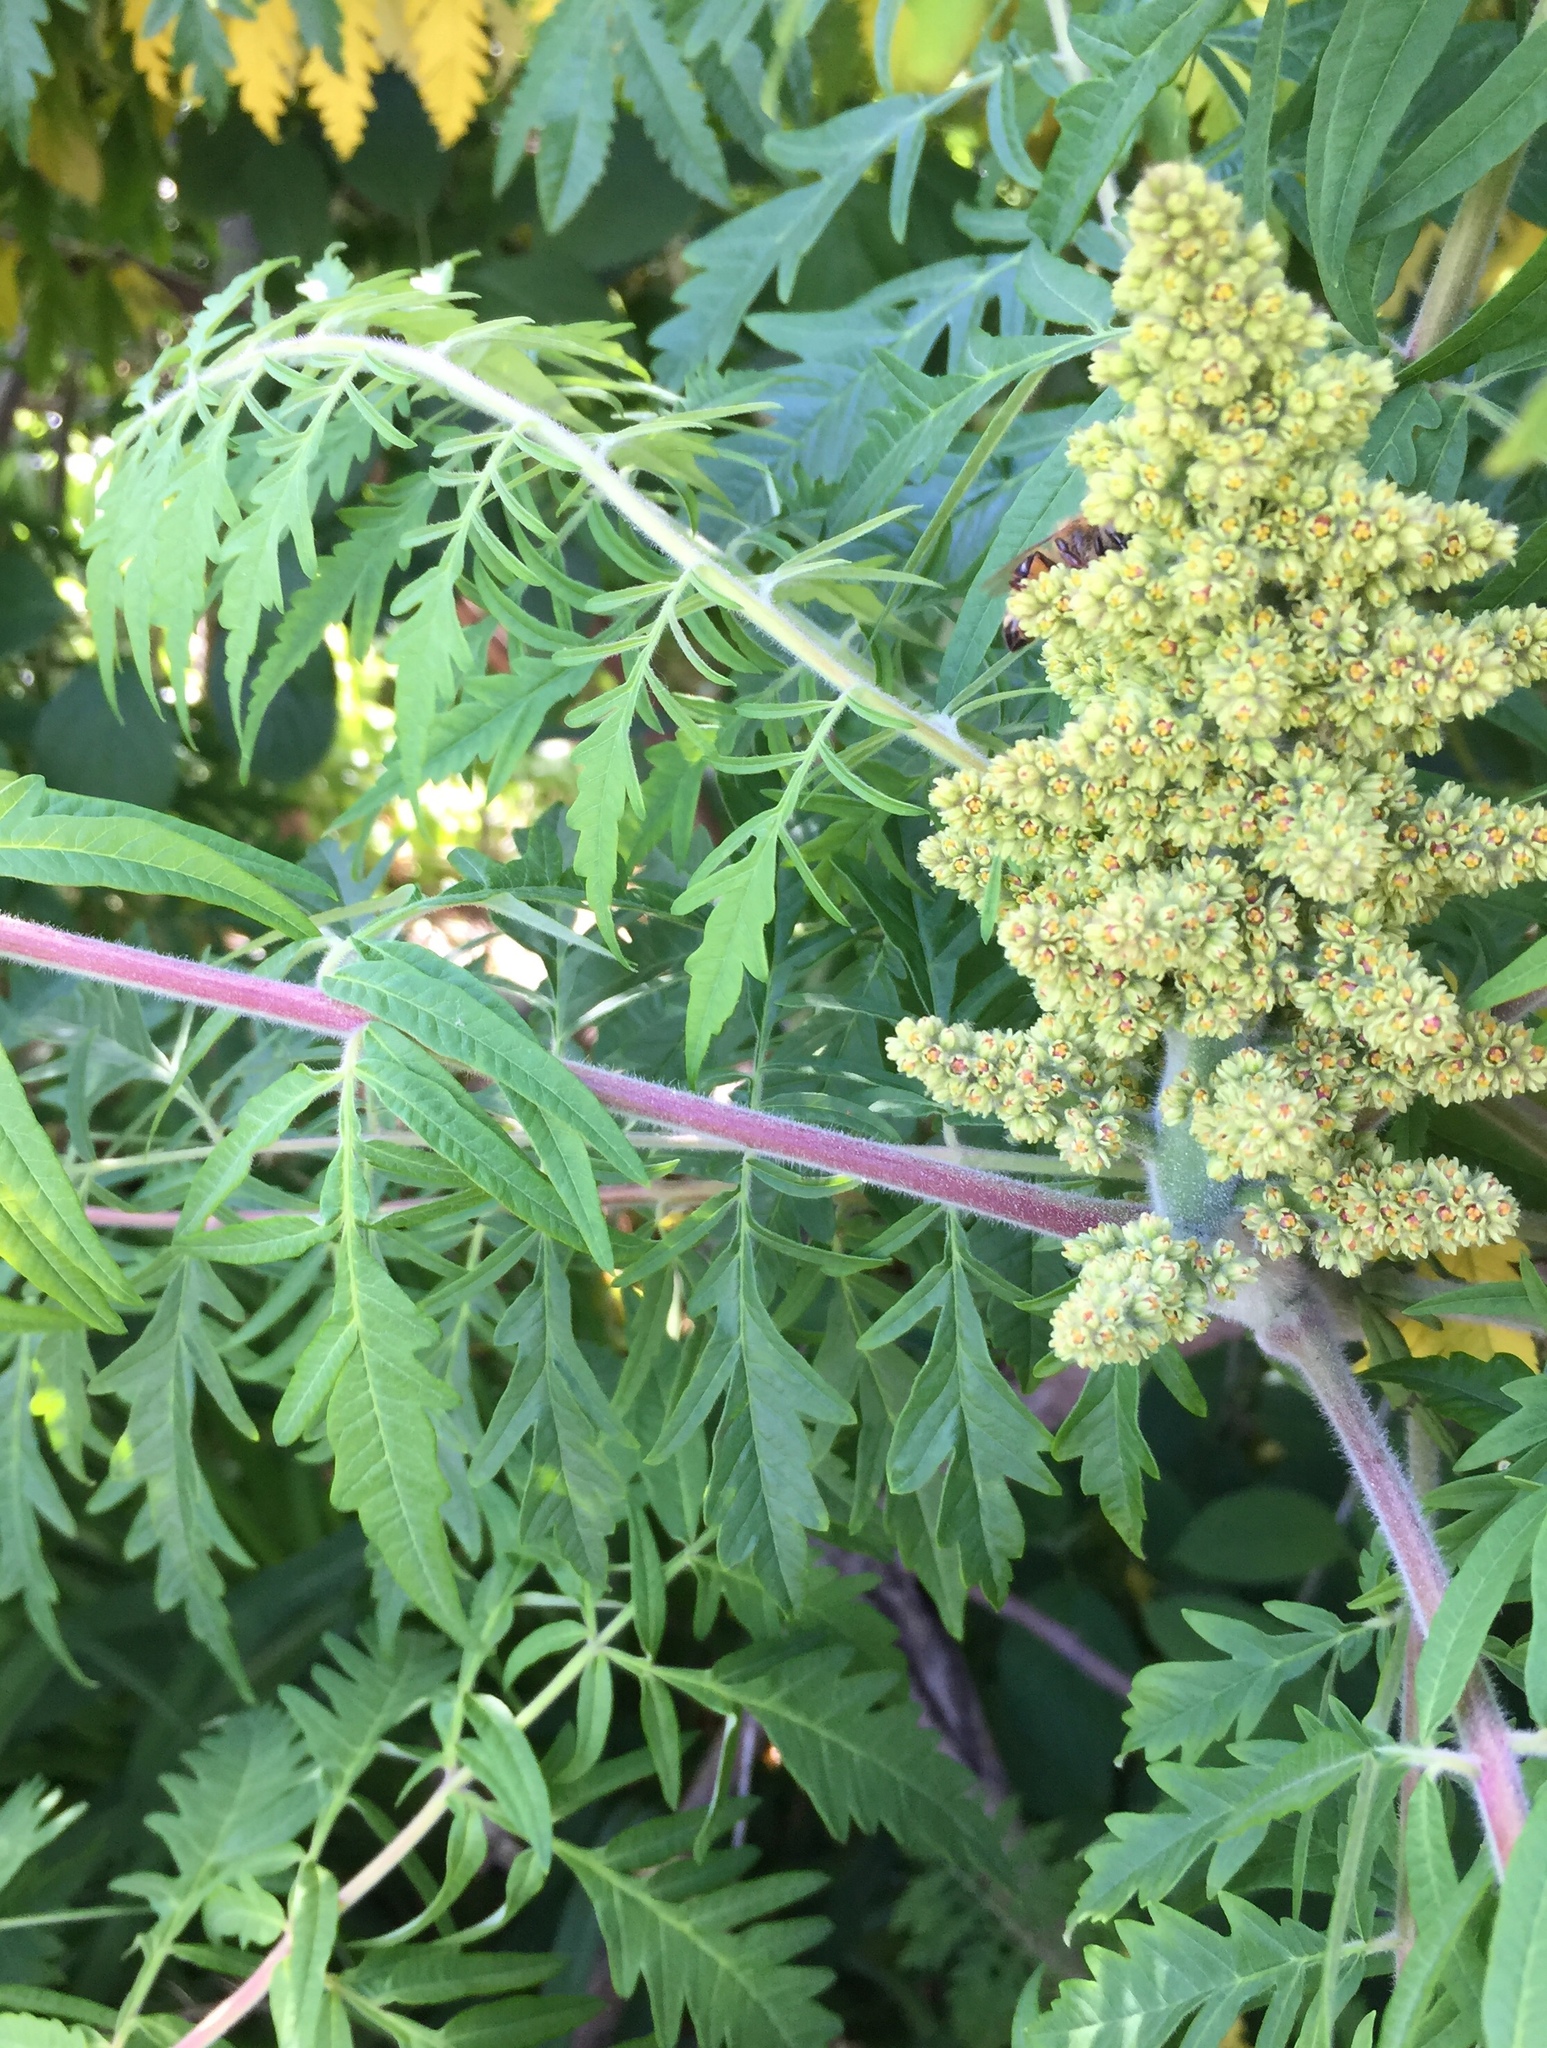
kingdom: Plantae
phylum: Tracheophyta
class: Magnoliopsida
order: Sapindales
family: Anacardiaceae
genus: Rhus
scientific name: Rhus typhina
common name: Staghorn sumac
